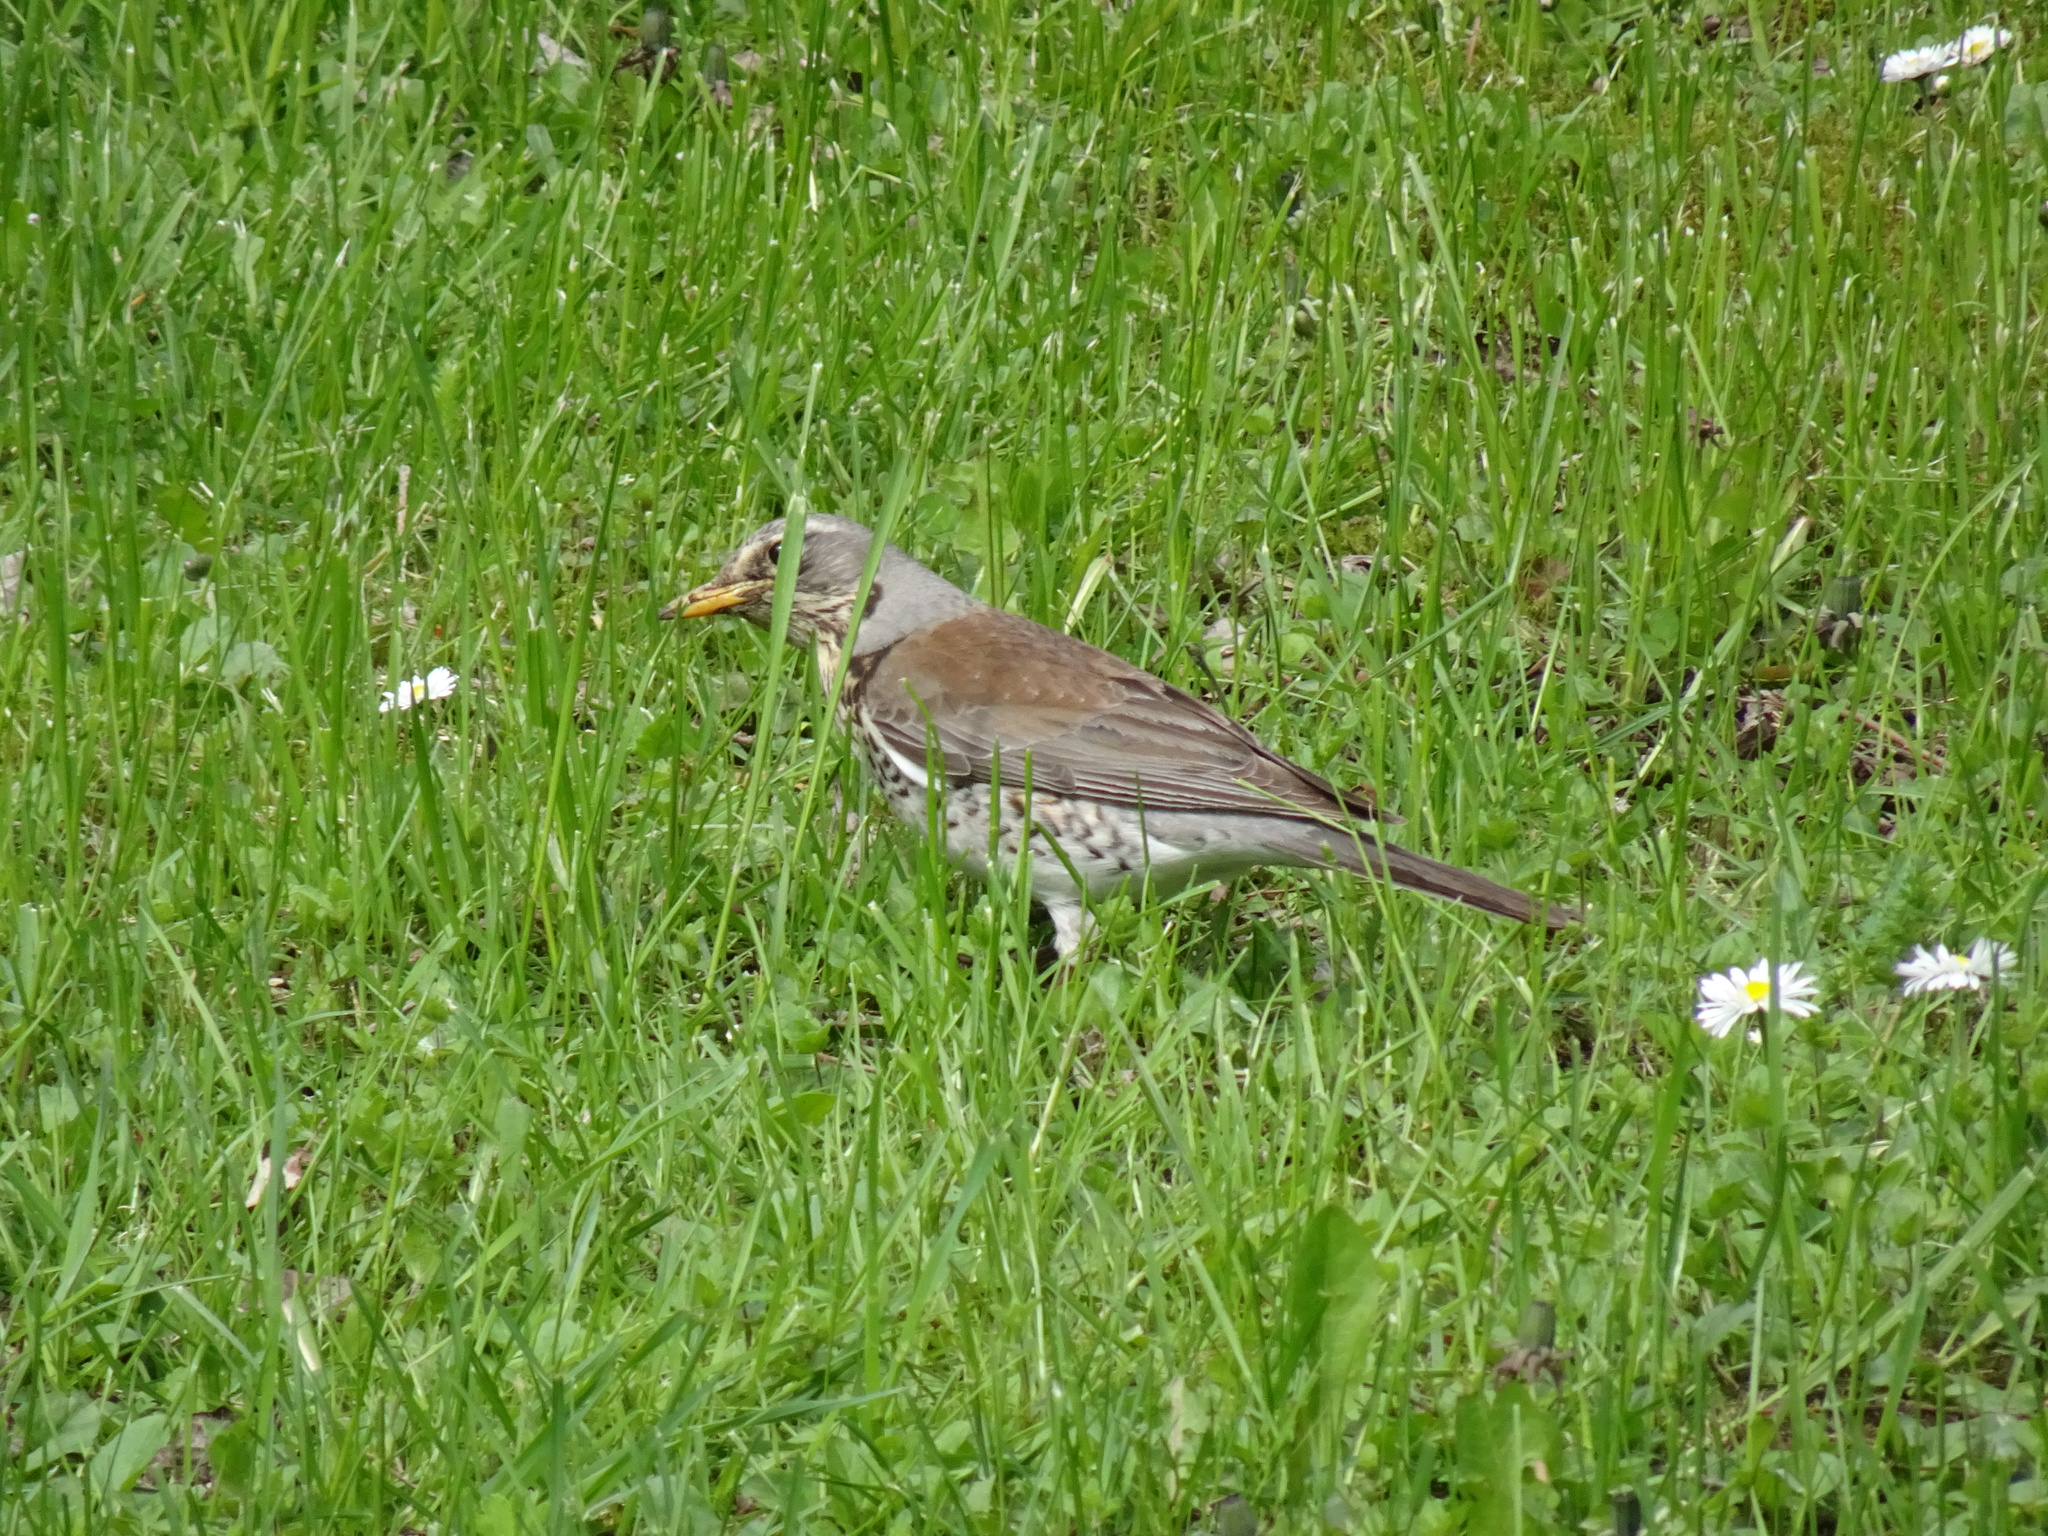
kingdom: Animalia
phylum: Chordata
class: Aves
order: Passeriformes
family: Turdidae
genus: Turdus
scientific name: Turdus pilaris
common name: Fieldfare
